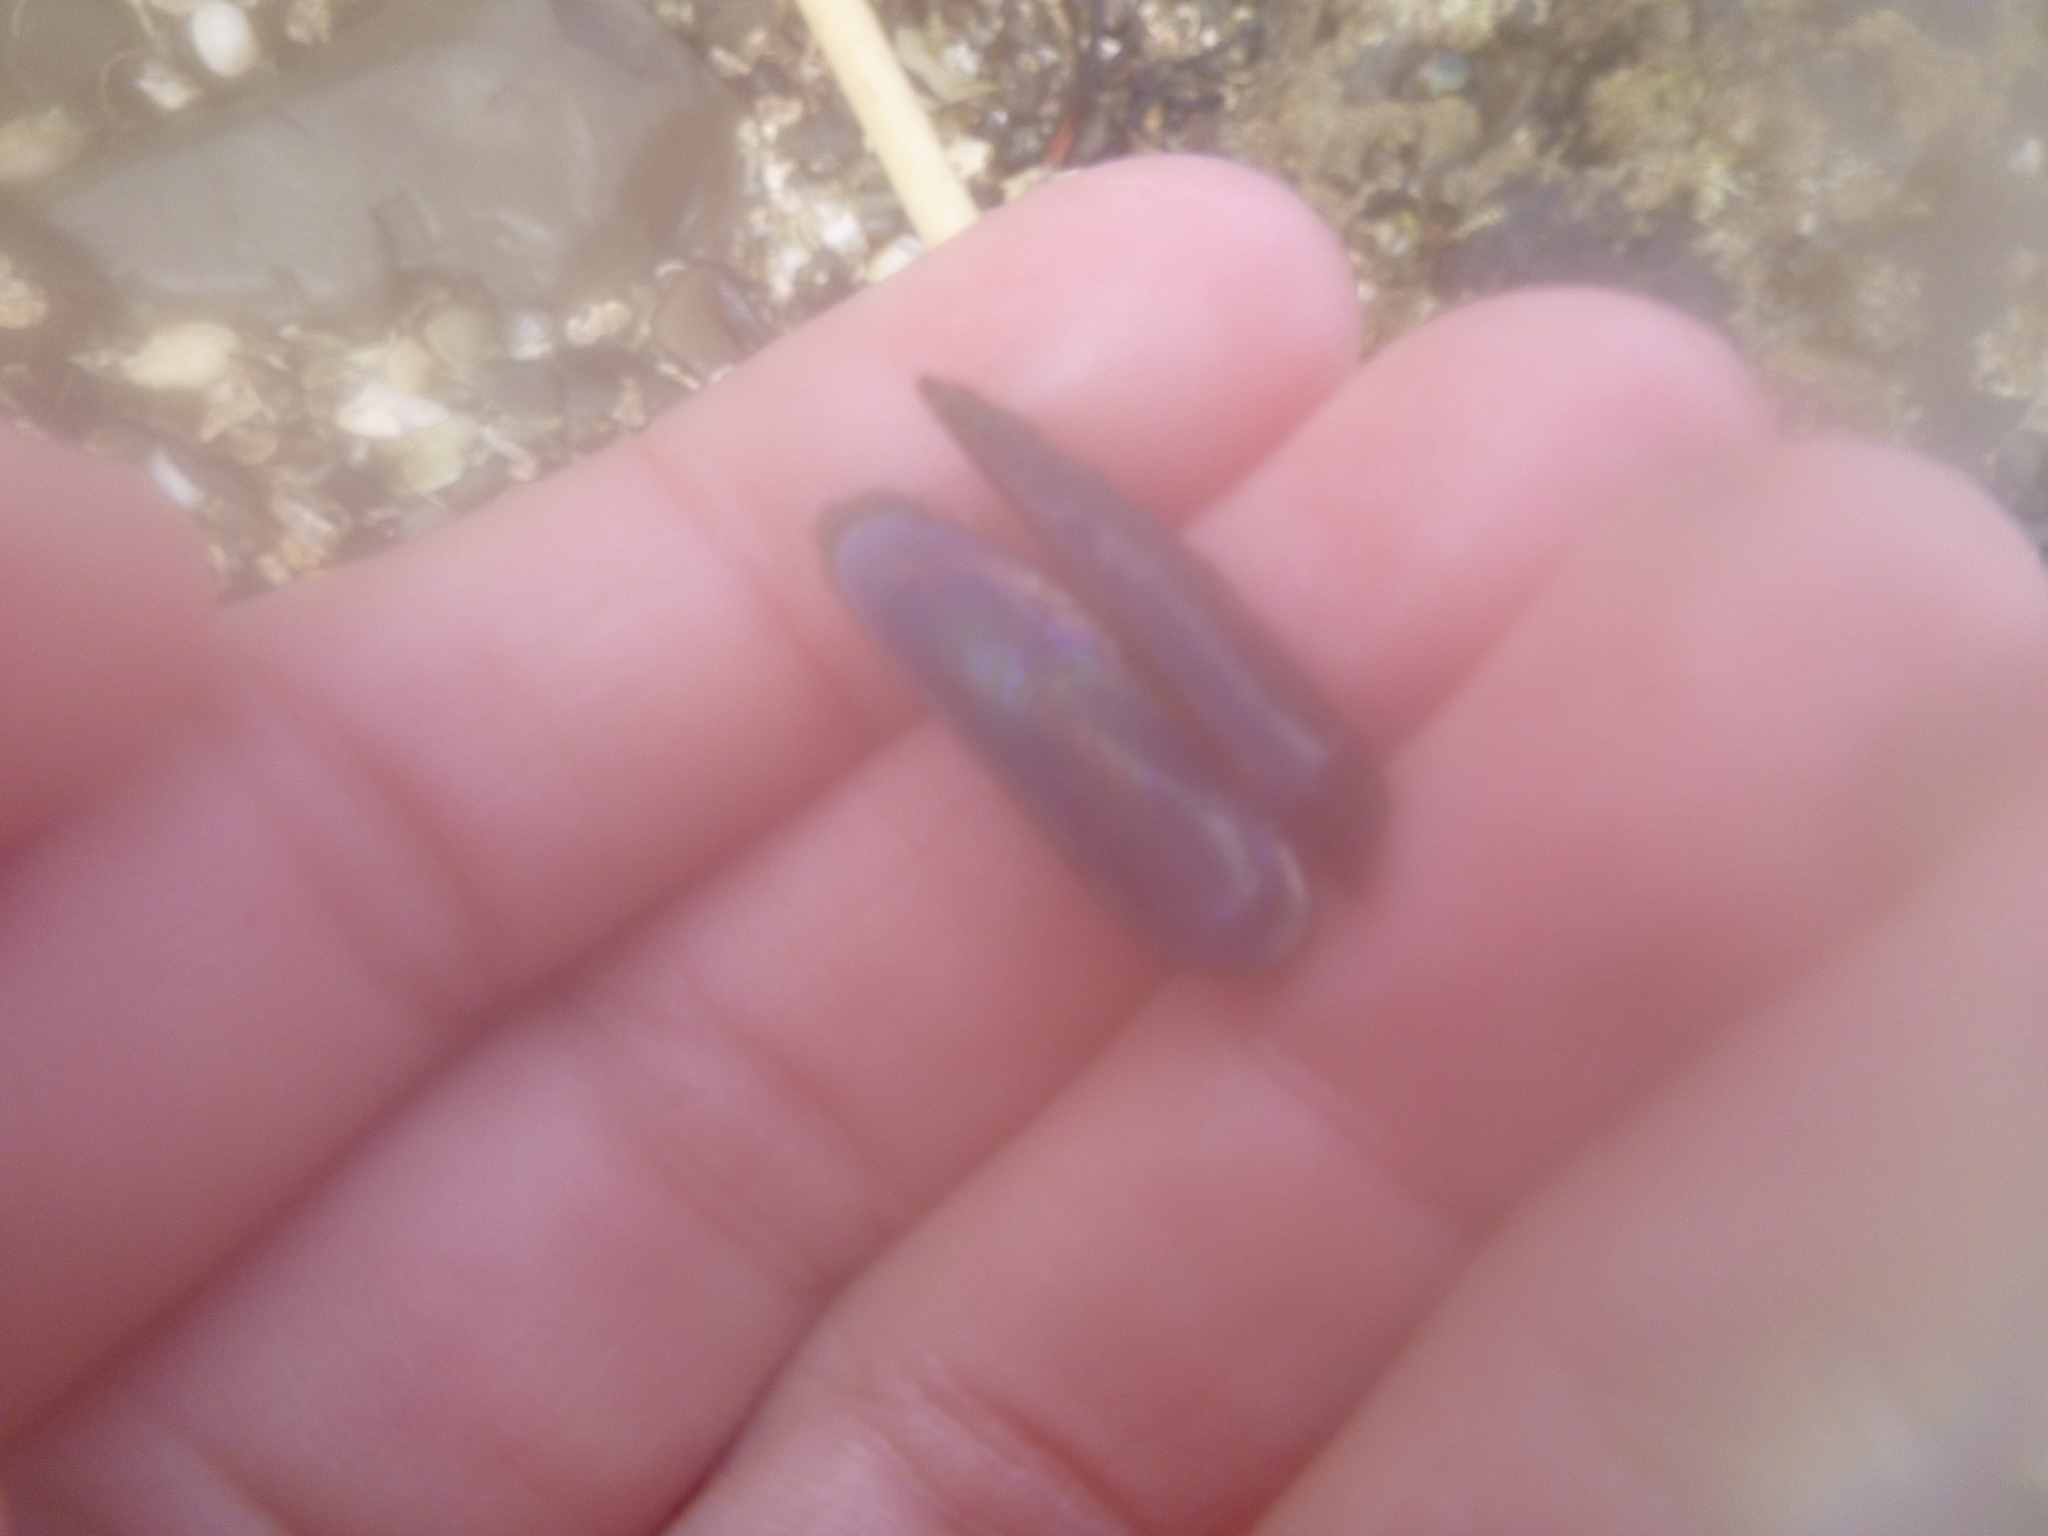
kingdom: Animalia
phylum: Mollusca
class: Bivalvia
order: Mytilida
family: Mytilidae
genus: Zelithophaga
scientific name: Zelithophaga truncata
